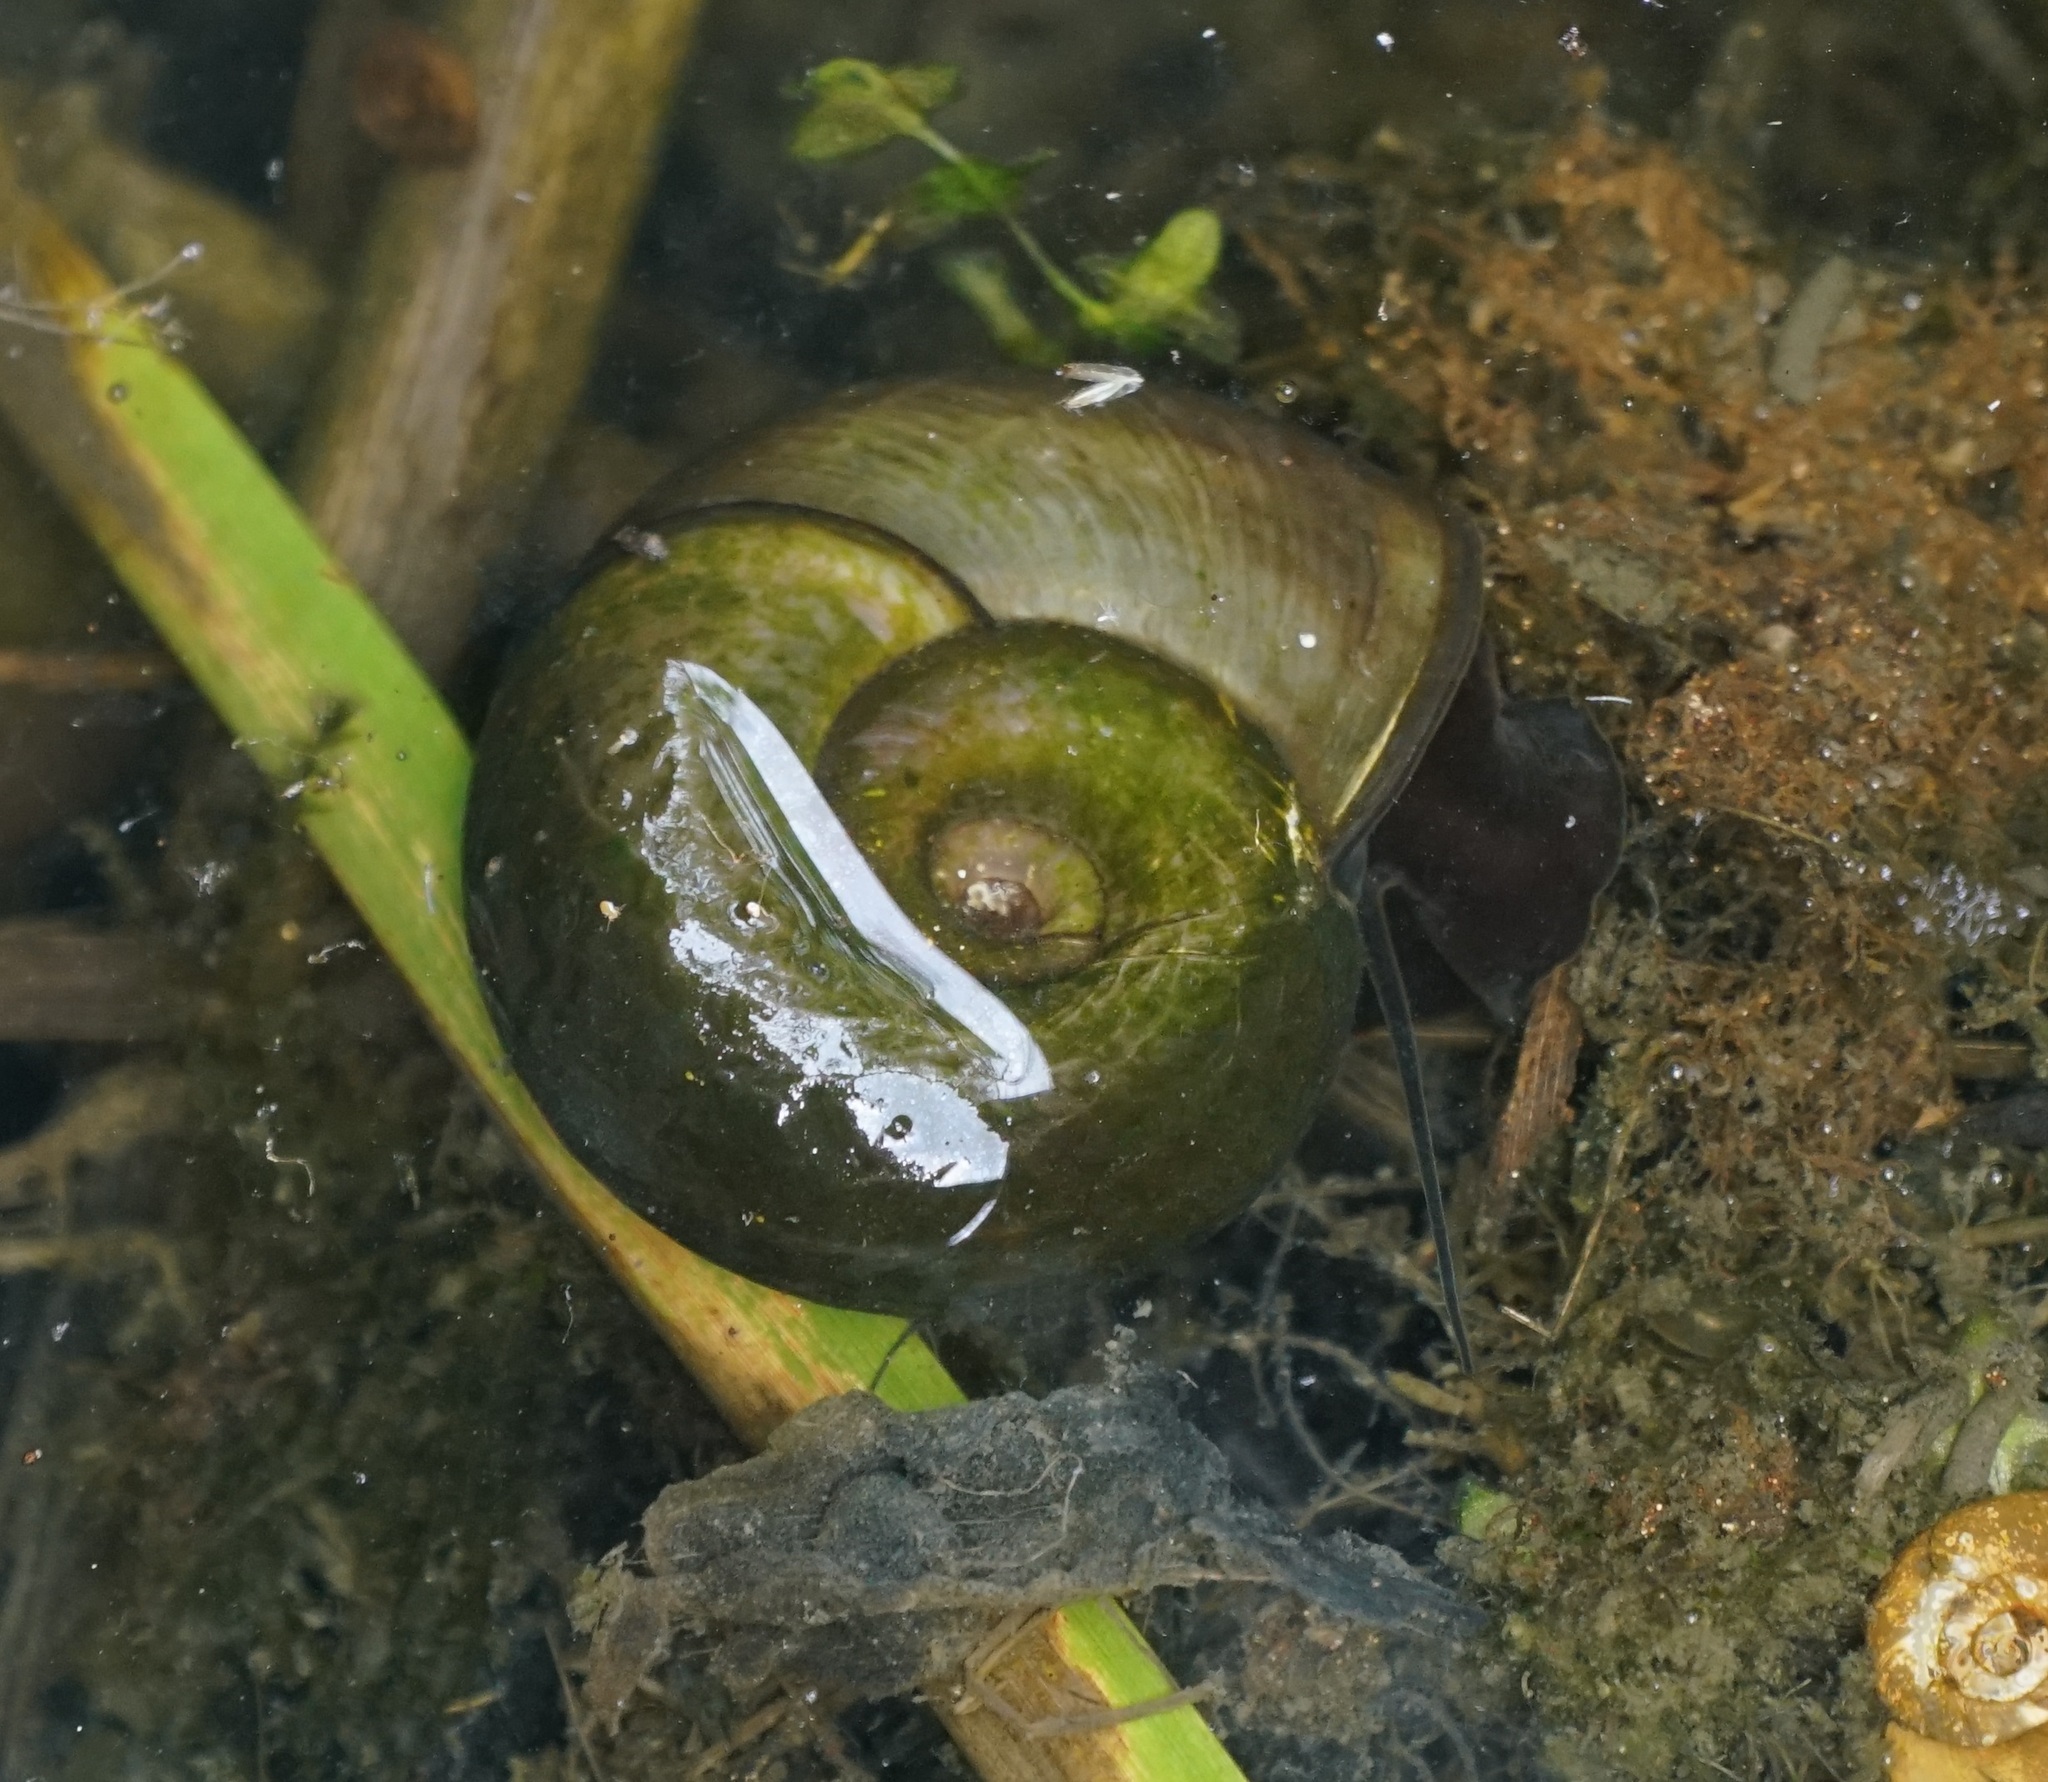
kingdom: Animalia
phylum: Mollusca
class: Gastropoda
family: Planorbidae
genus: Planorbarius
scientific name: Planorbarius corneus
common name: Great ramshorn
